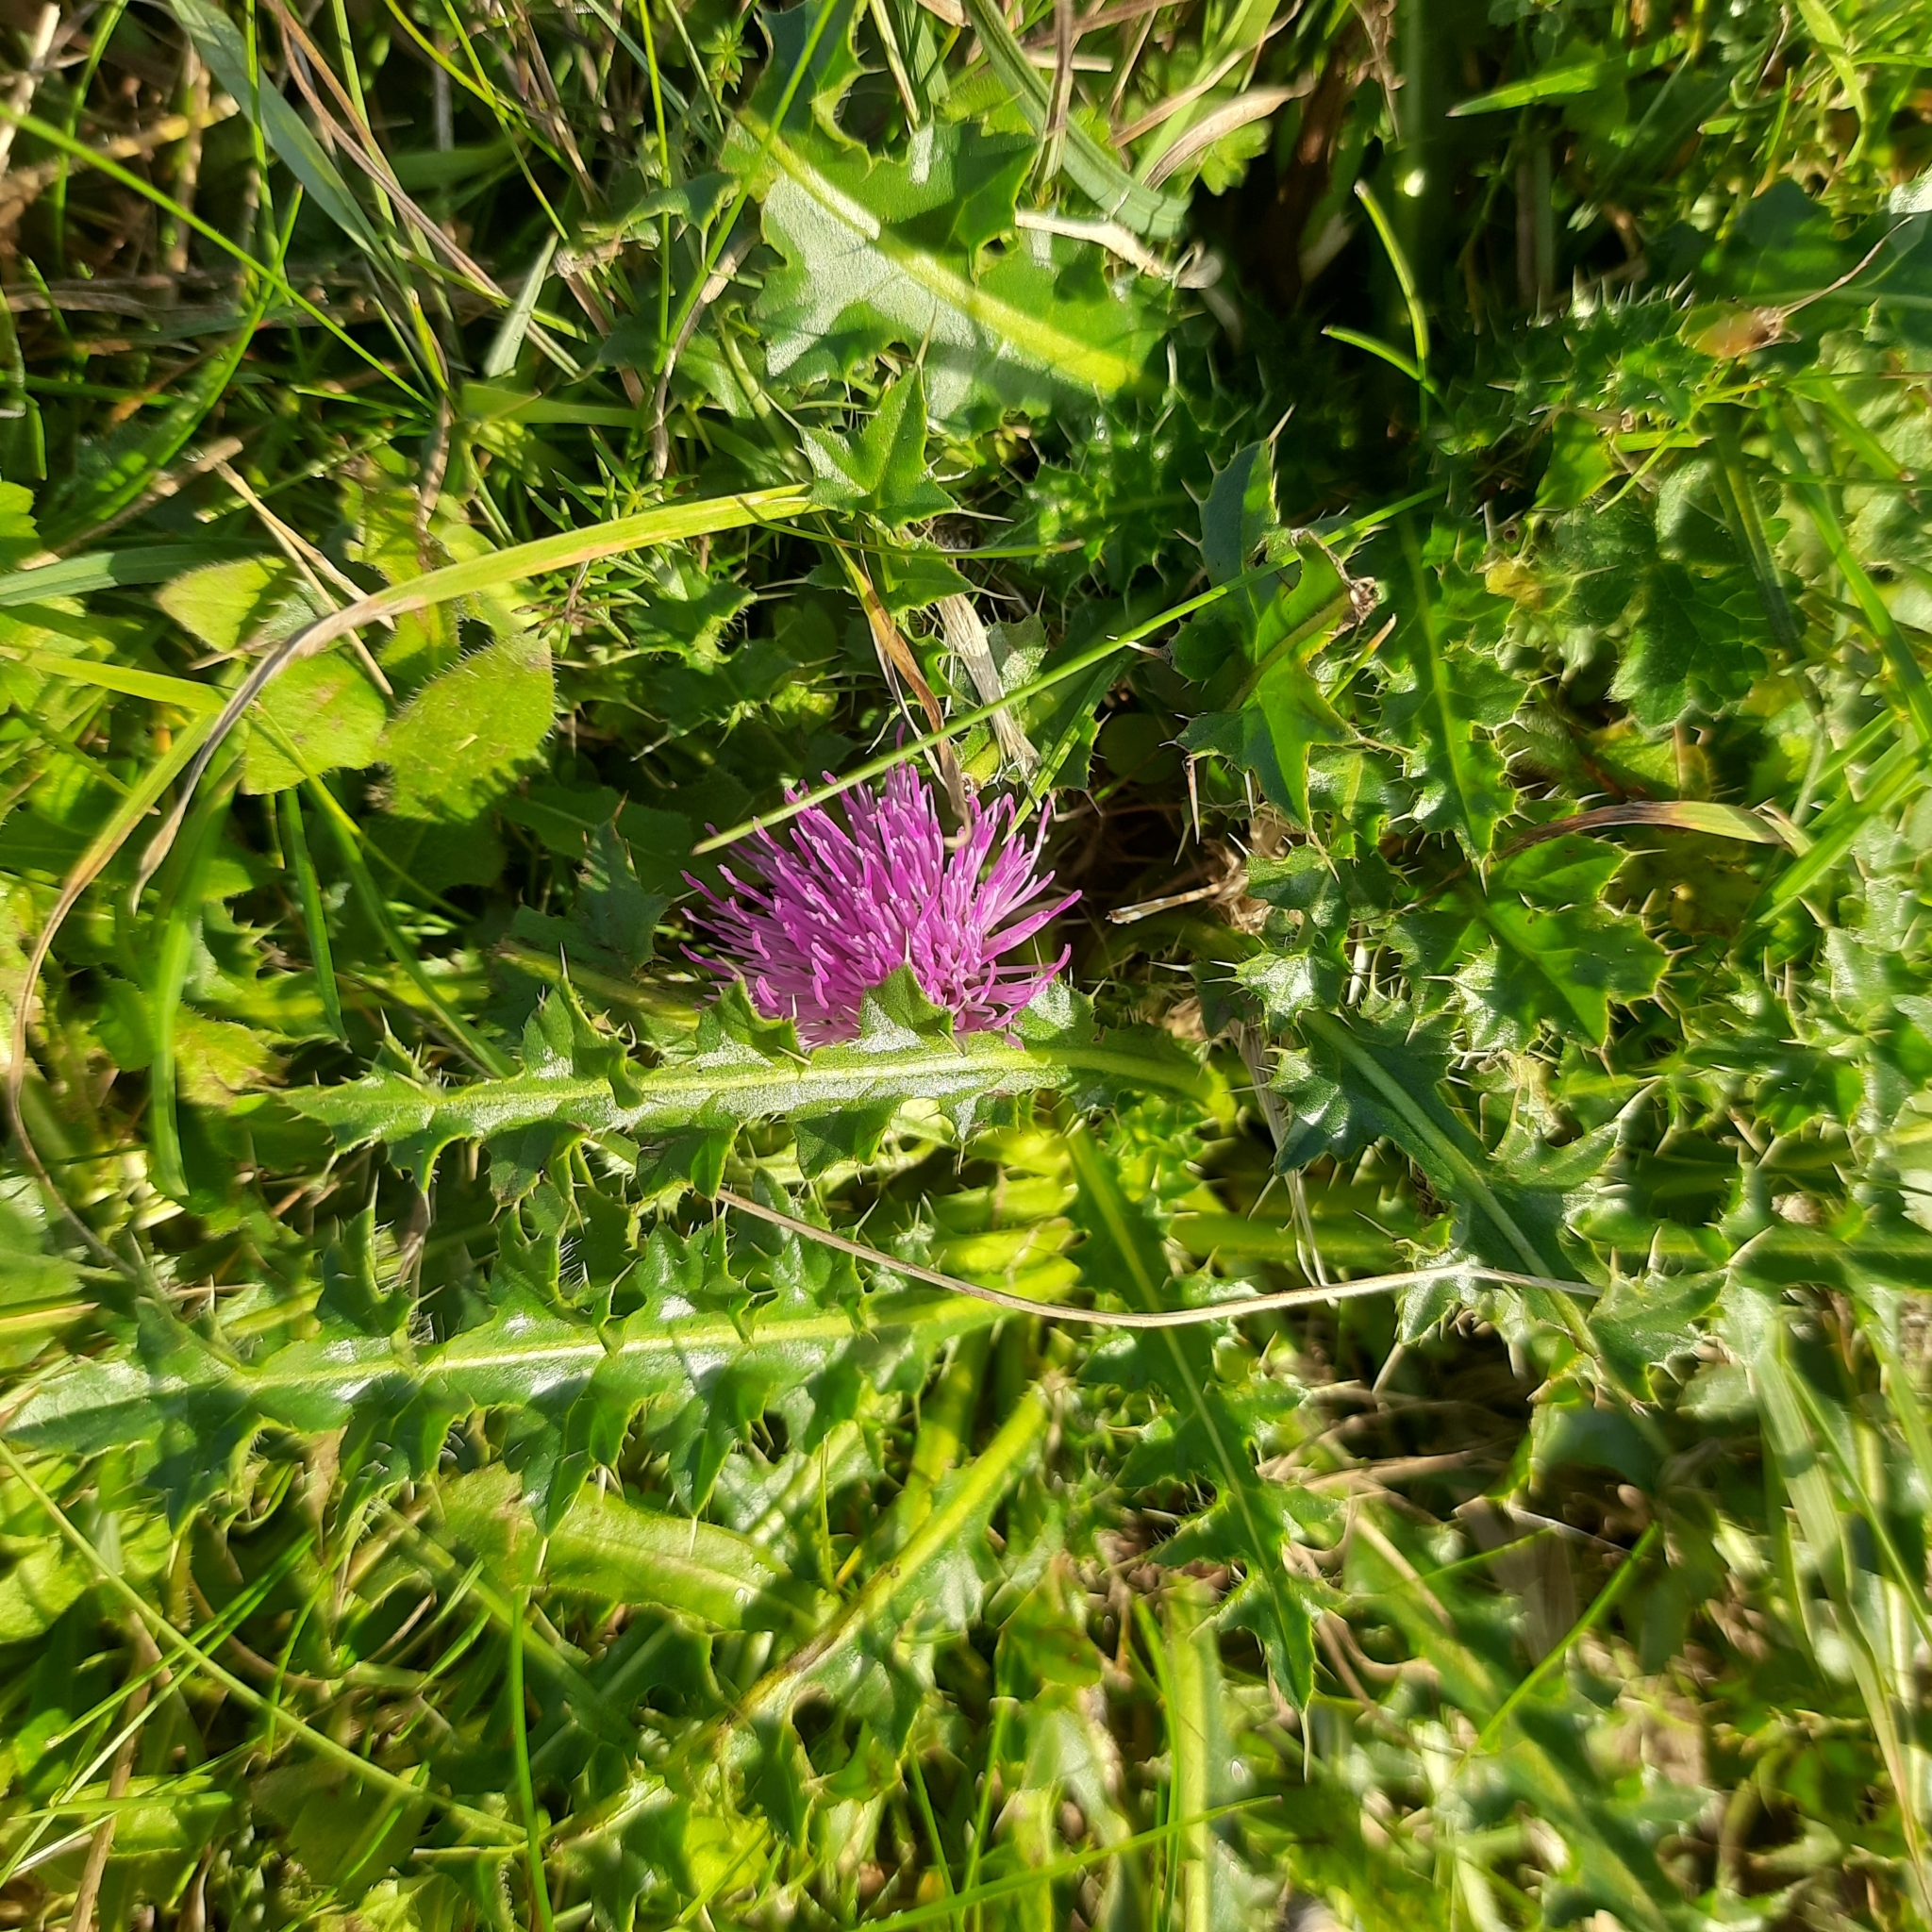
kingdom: Plantae
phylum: Tracheophyta
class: Magnoliopsida
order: Asterales
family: Asteraceae
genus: Cirsium
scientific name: Cirsium acaulon
